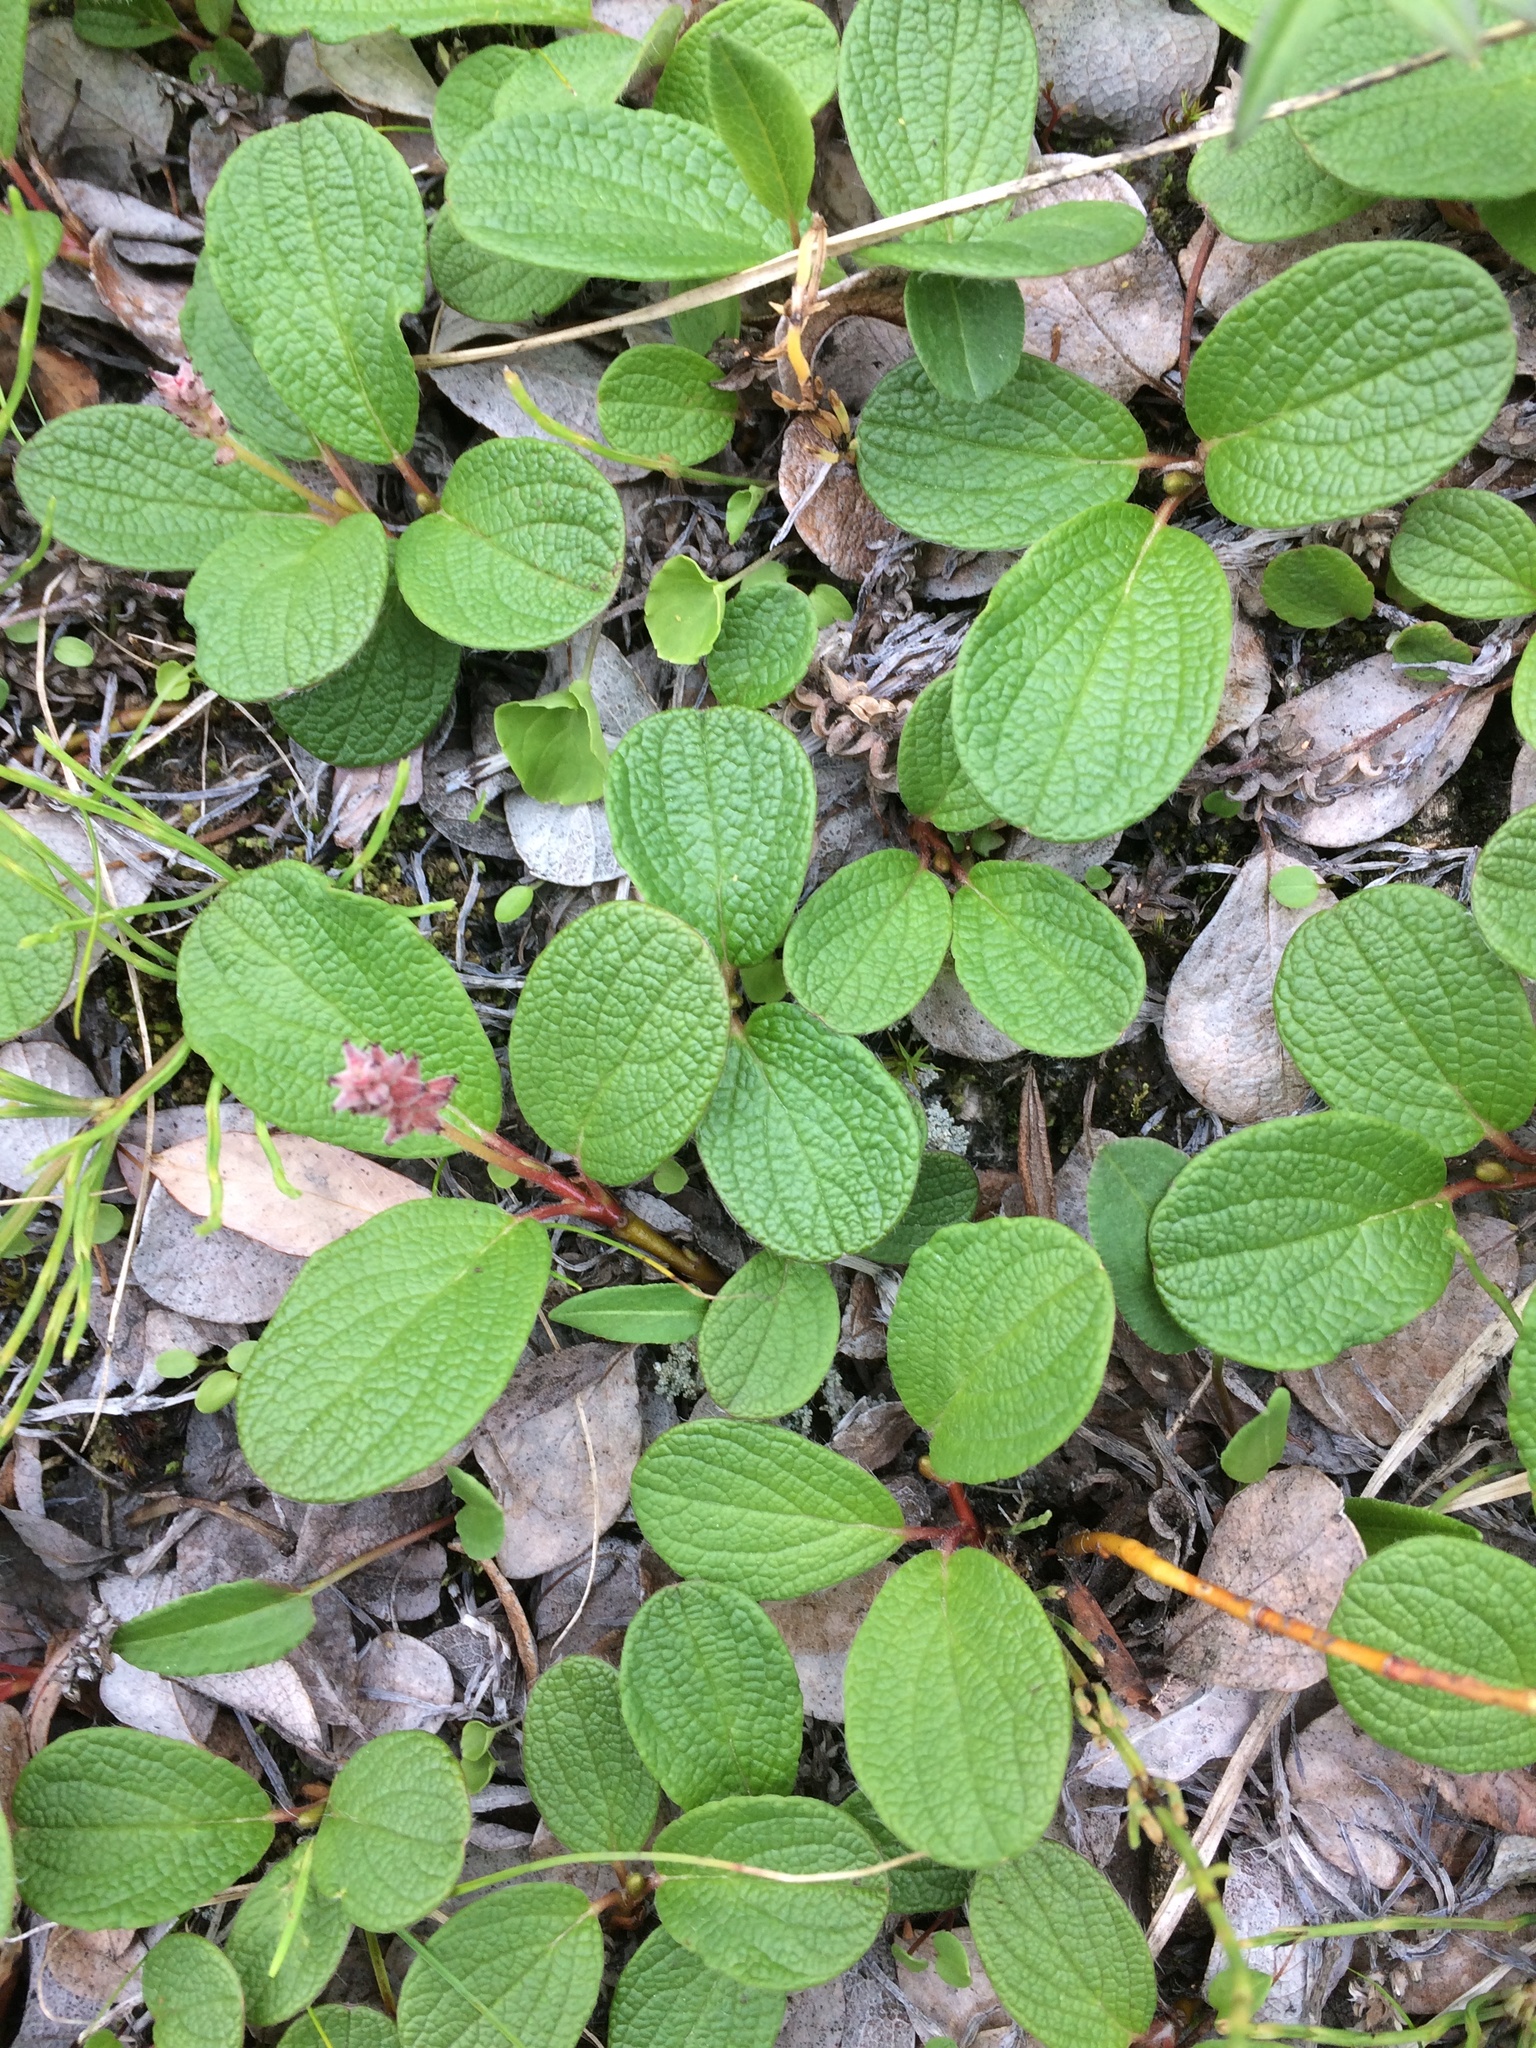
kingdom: Plantae
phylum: Tracheophyta
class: Magnoliopsida
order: Malpighiales
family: Salicaceae
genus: Salix
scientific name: Salix reticulata
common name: Net-leaved willow
